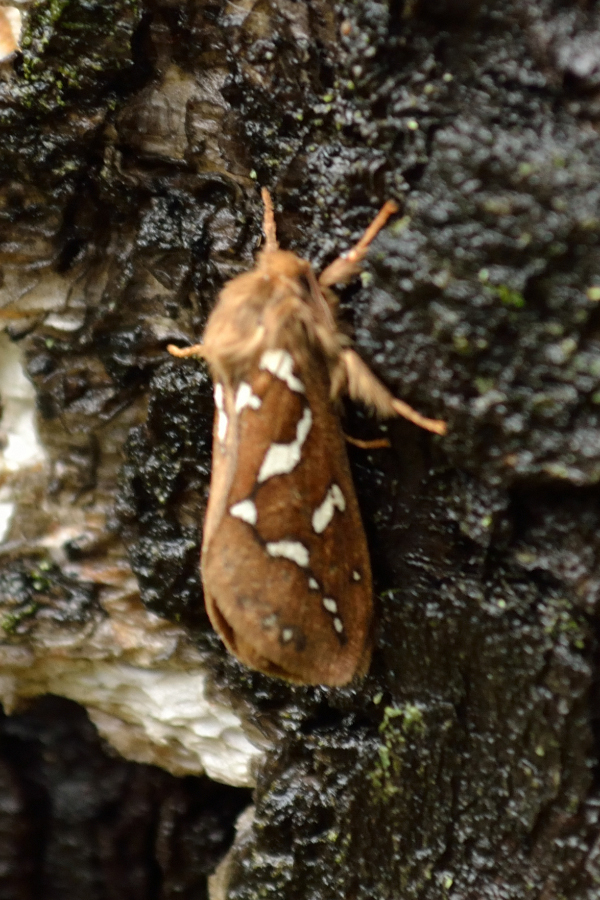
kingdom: Animalia
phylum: Arthropoda
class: Insecta
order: Lepidoptera
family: Hepialidae
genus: Gazoryctra
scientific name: Gazoryctra ganna
